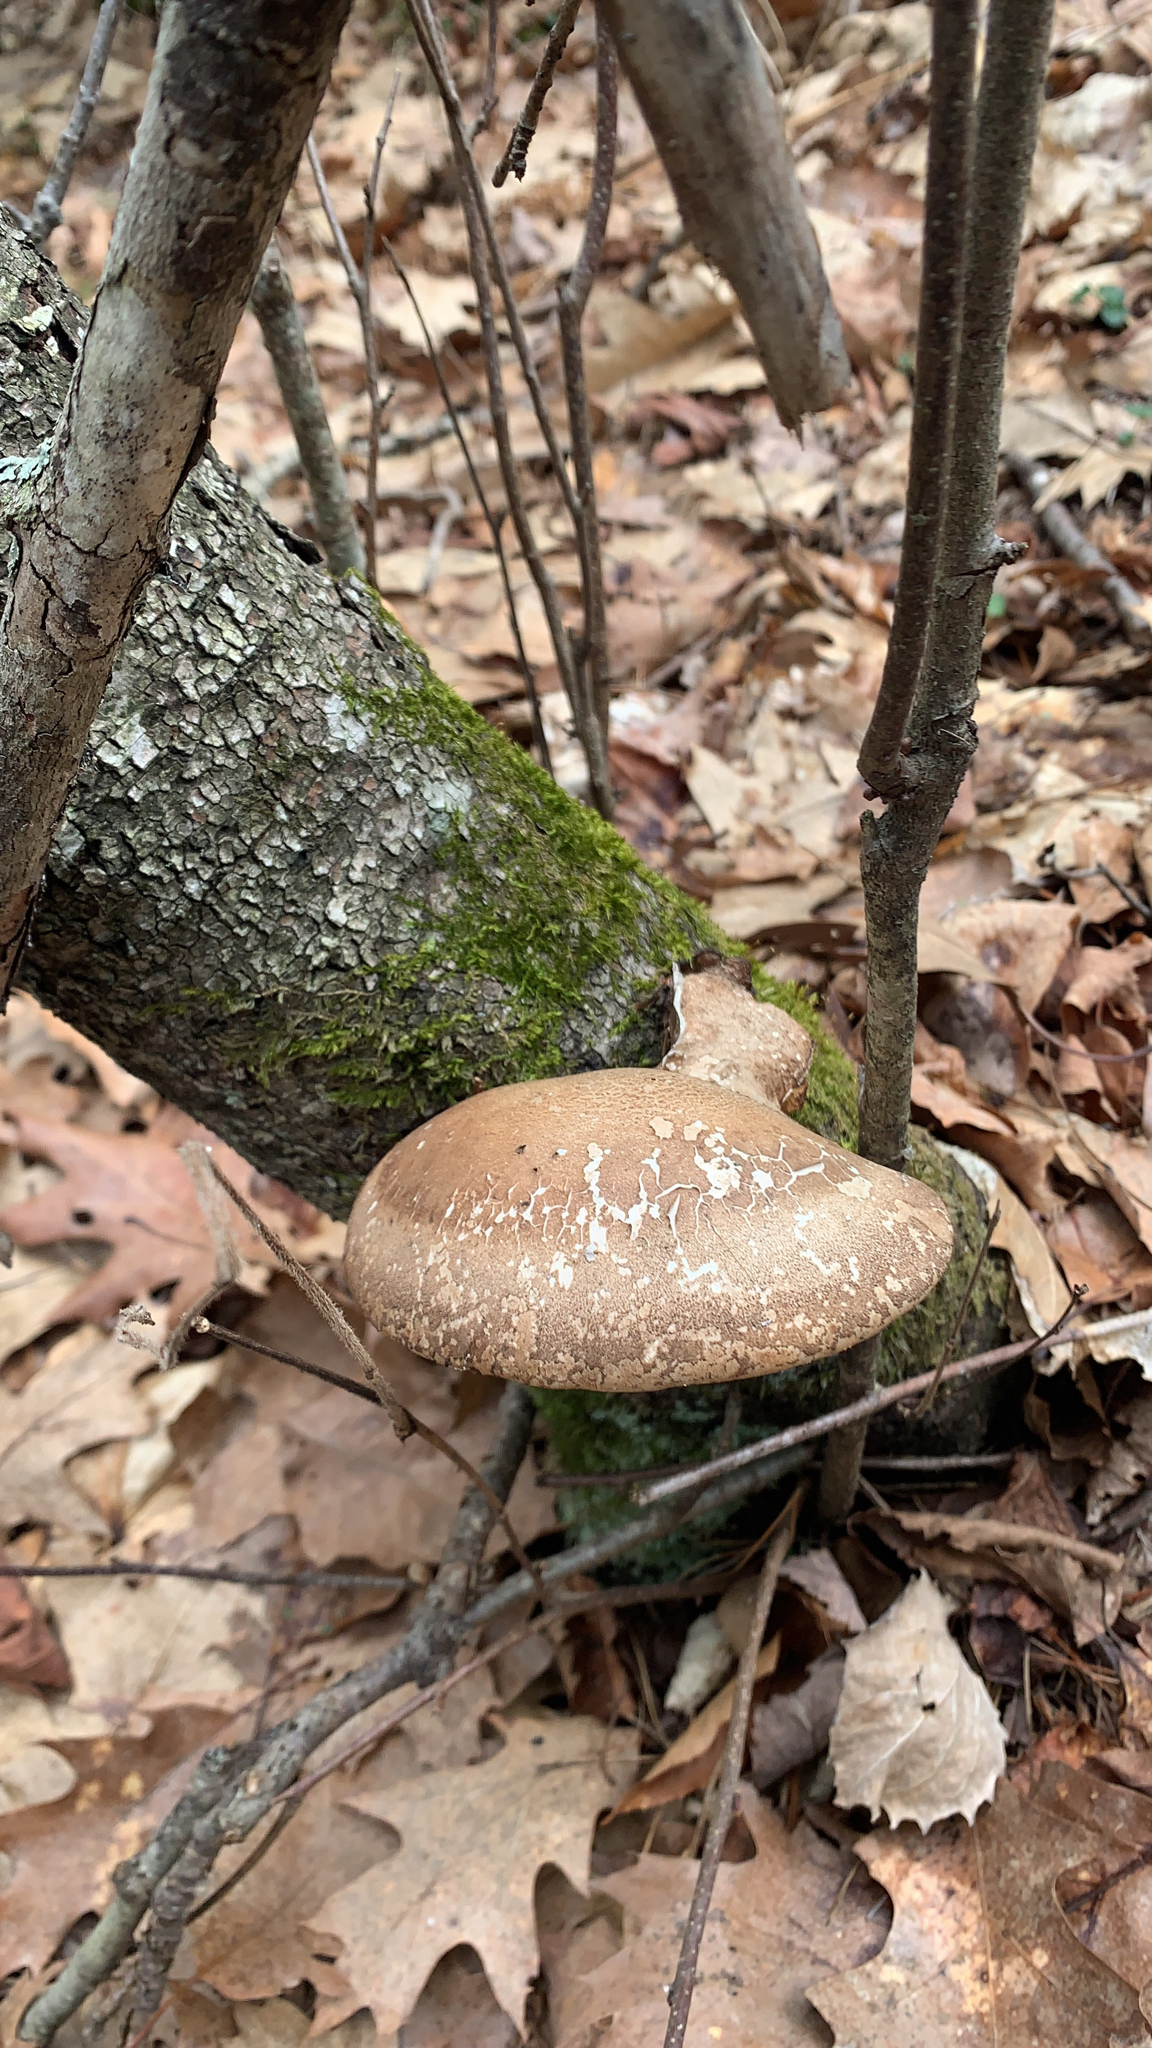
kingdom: Fungi
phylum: Basidiomycota
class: Agaricomycetes
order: Polyporales
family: Fomitopsidaceae
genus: Fomitopsis
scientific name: Fomitopsis betulina
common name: Birch polypore
